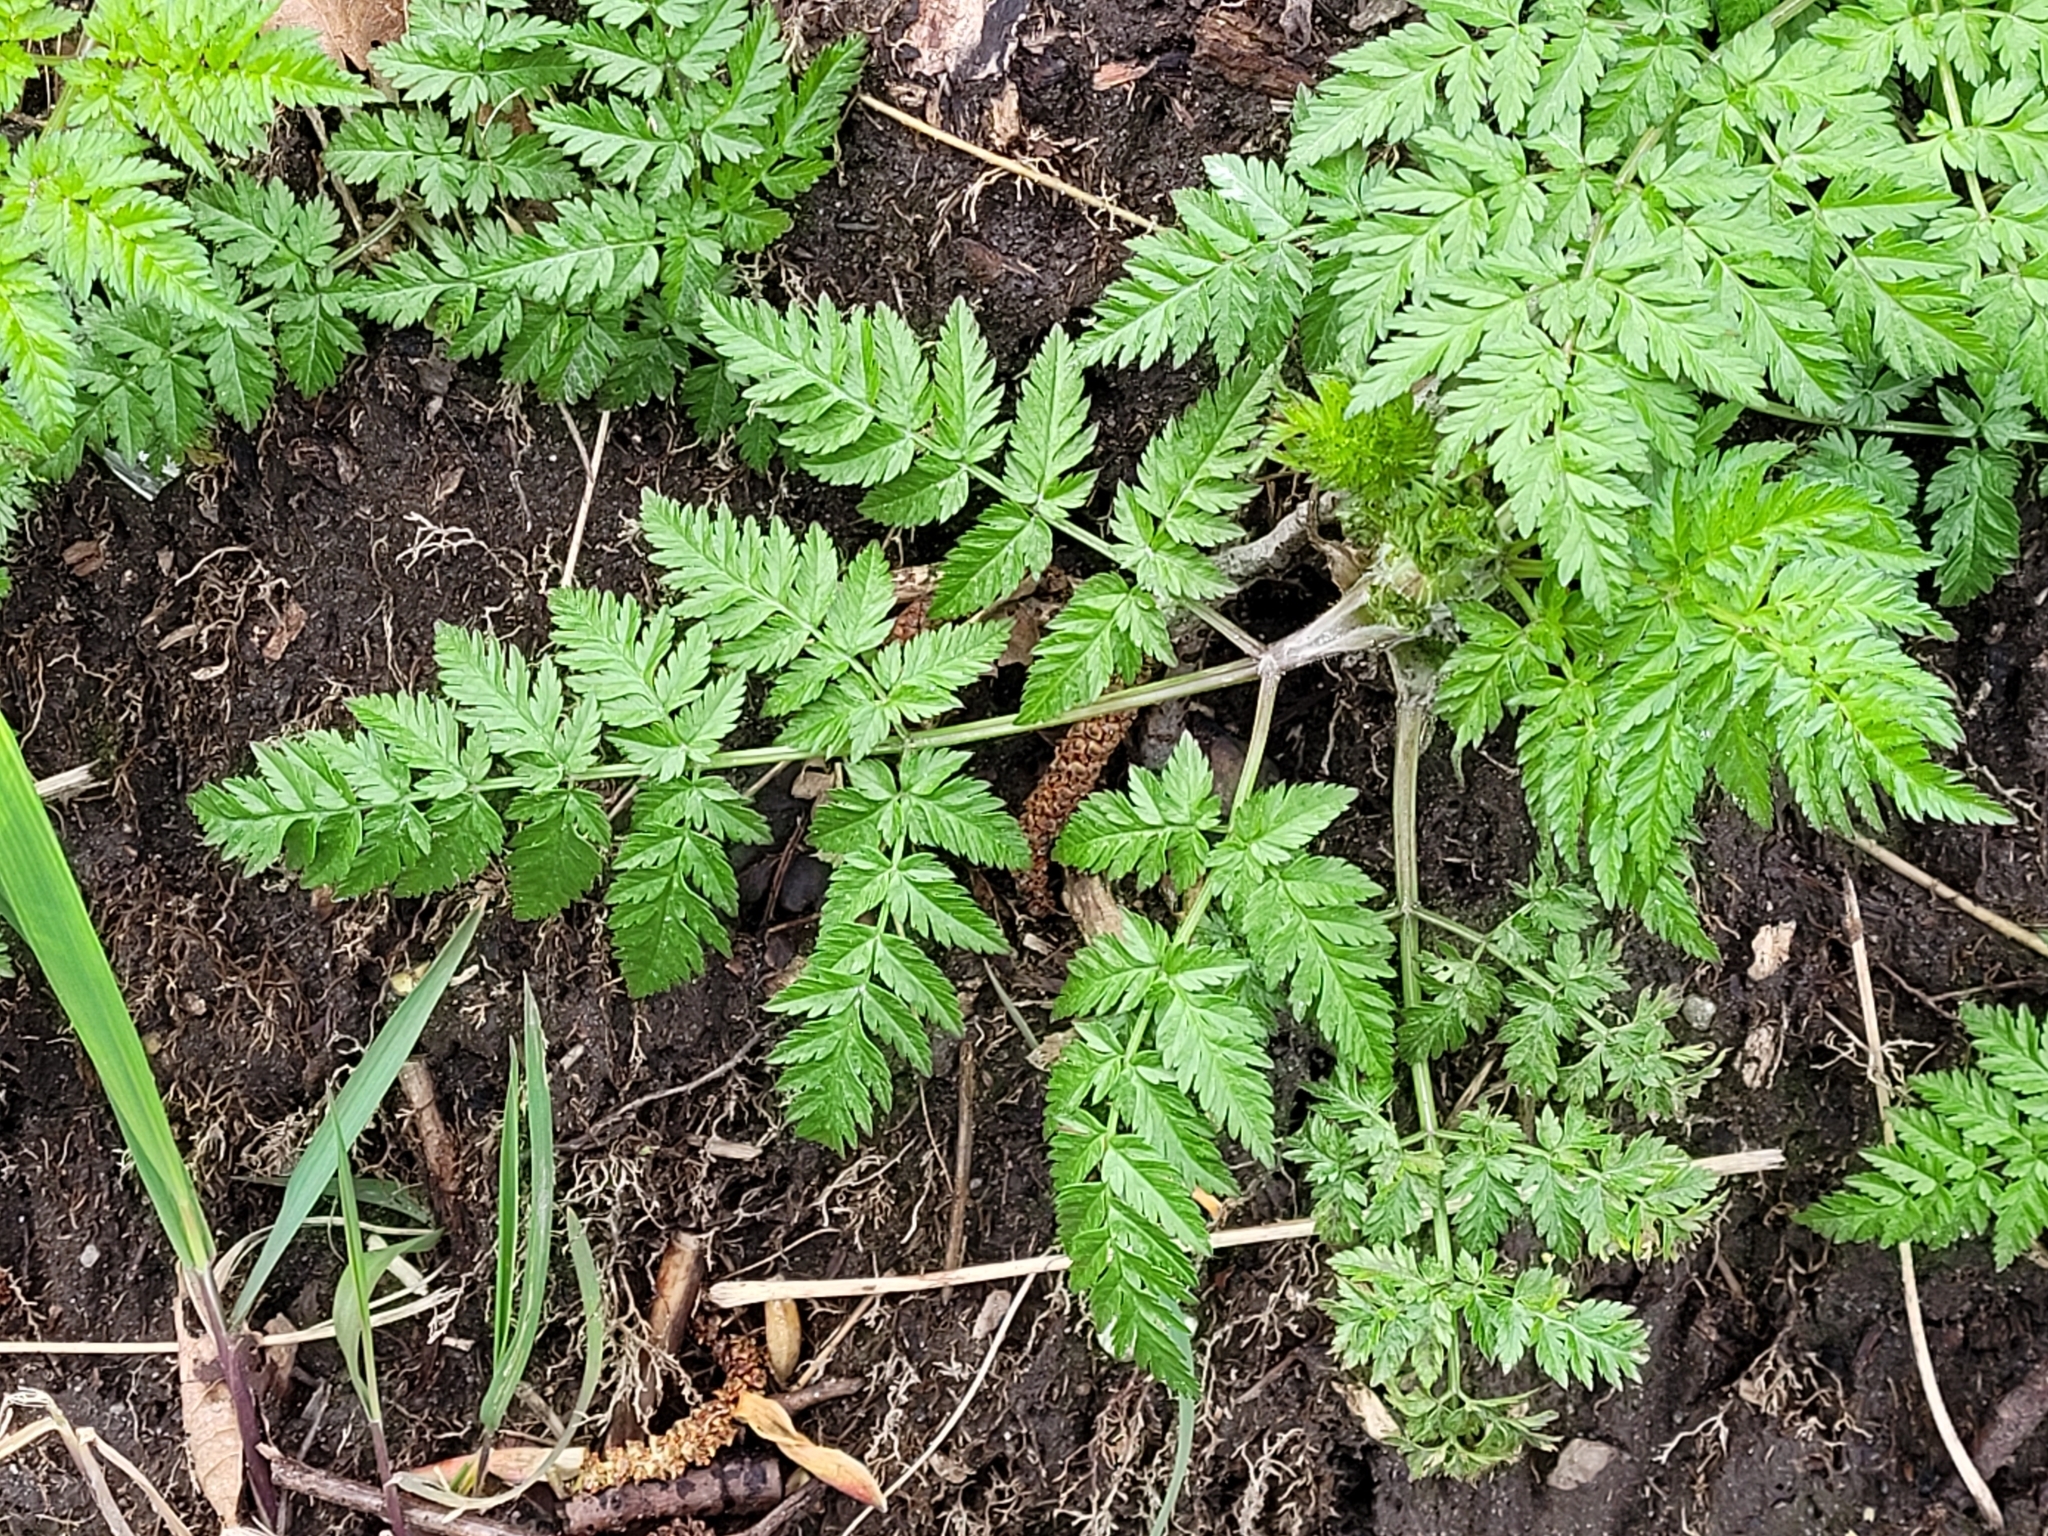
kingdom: Plantae
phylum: Tracheophyta
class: Magnoliopsida
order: Apiales
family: Apiaceae
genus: Myrrhis
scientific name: Myrrhis odorata
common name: Sweet cicely
